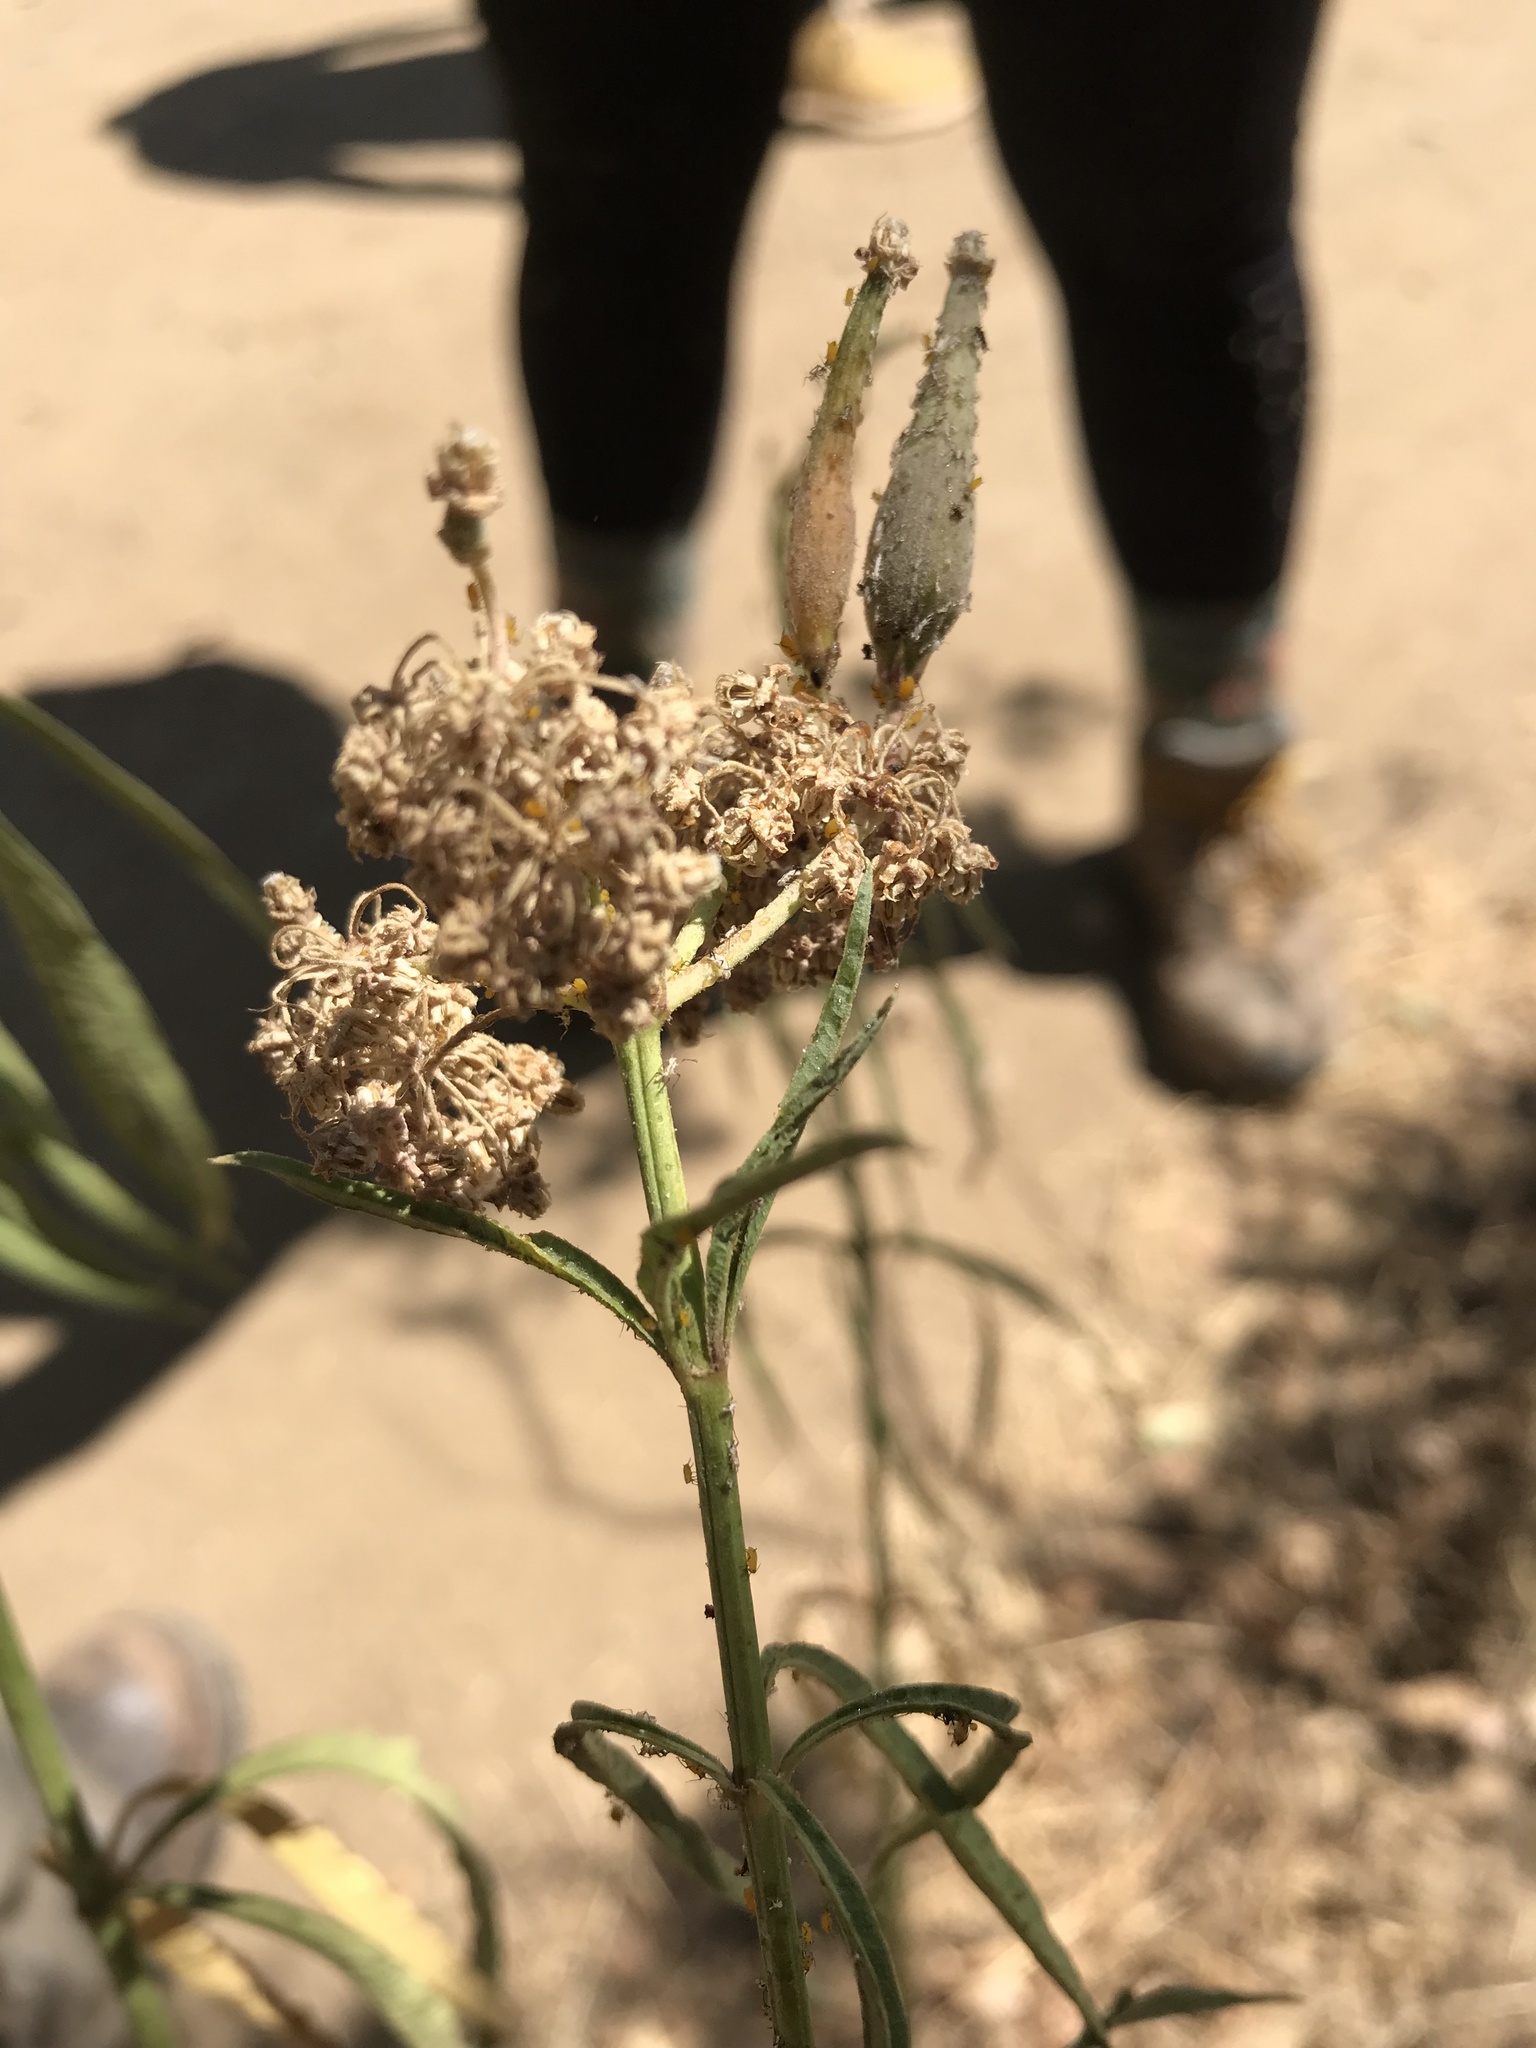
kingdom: Plantae
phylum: Tracheophyta
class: Magnoliopsida
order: Gentianales
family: Apocynaceae
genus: Asclepias
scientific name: Asclepias fascicularis
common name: Mexican milkweed
